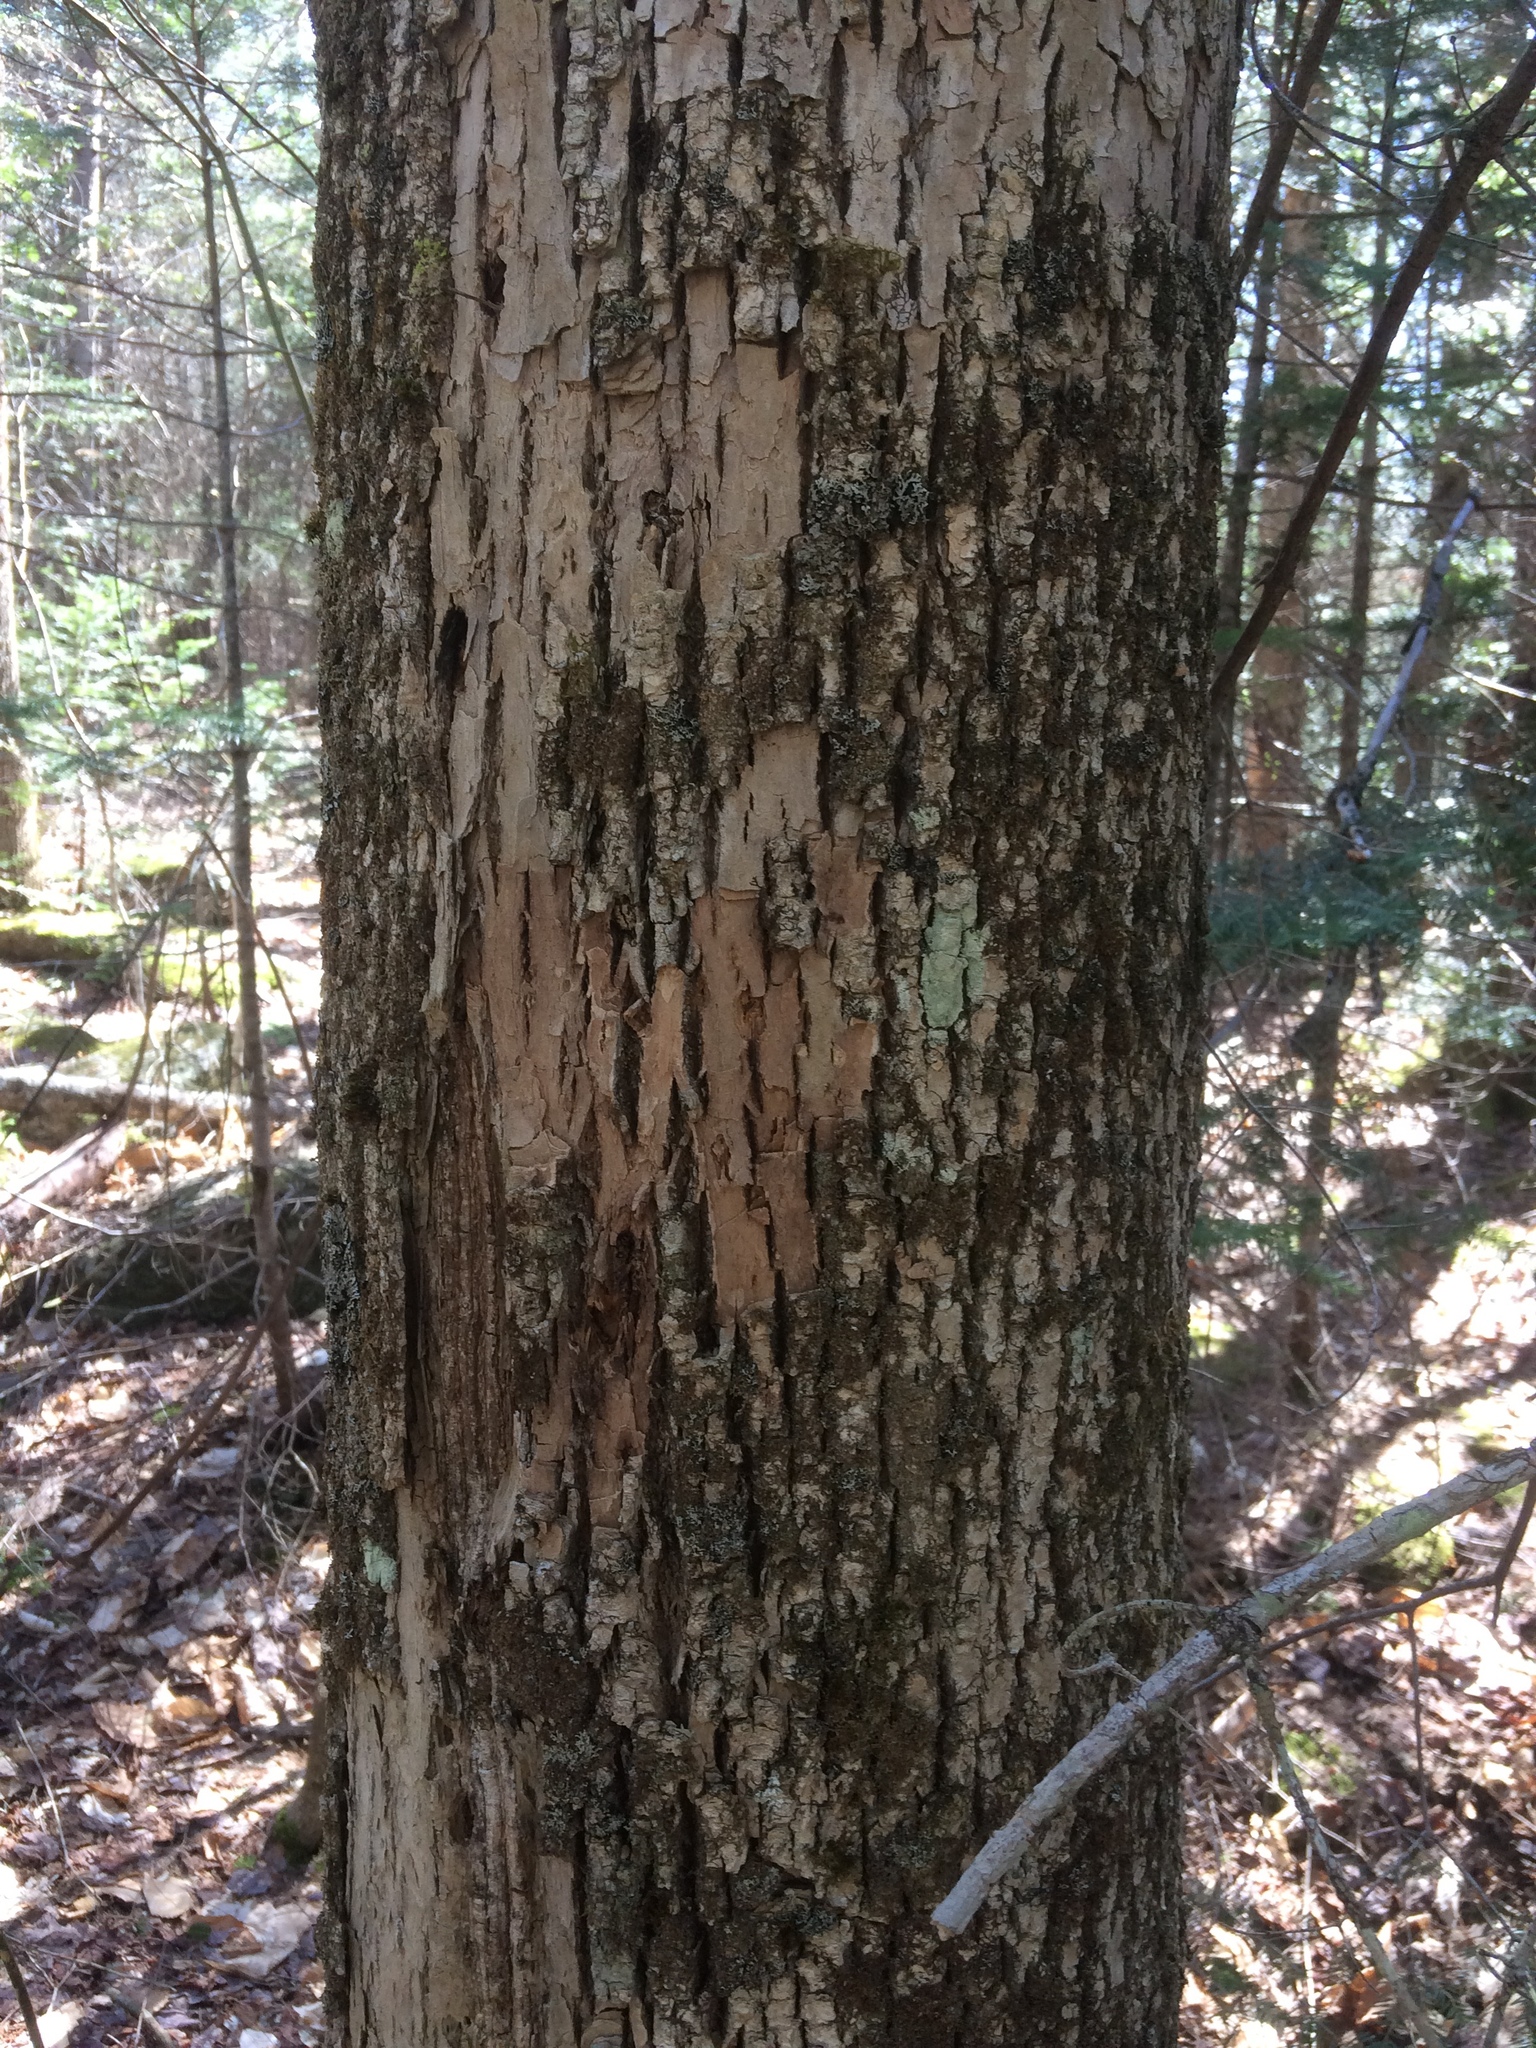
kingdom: Plantae
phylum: Tracheophyta
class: Magnoliopsida
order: Lamiales
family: Oleaceae
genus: Fraxinus
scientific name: Fraxinus americana
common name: White ash
